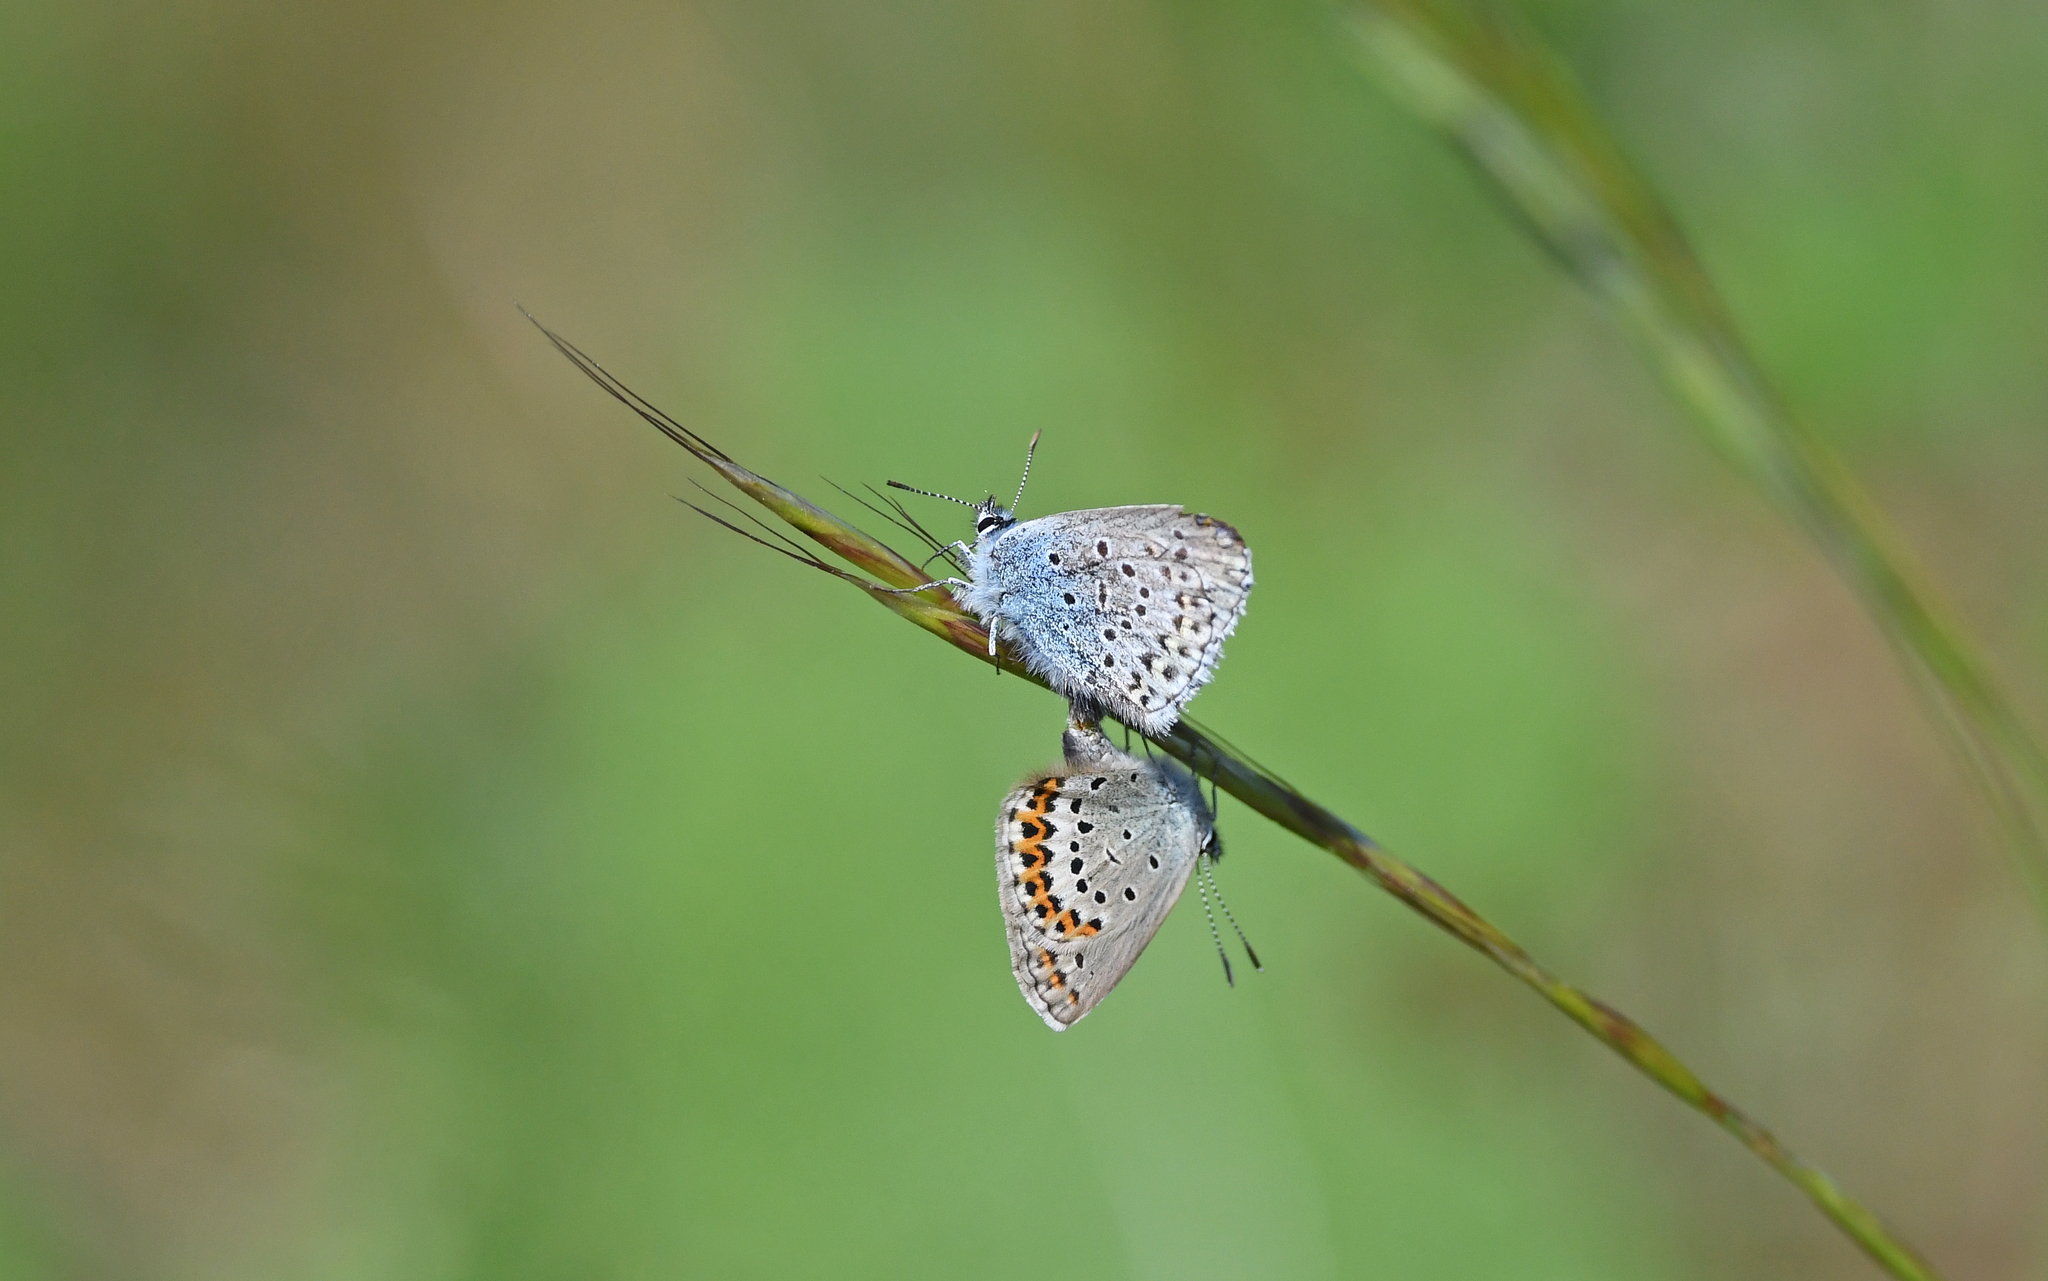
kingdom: Animalia
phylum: Arthropoda
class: Insecta
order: Lepidoptera
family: Lycaenidae
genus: Lycaeides
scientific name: Lycaeides idas
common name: Northern blue
